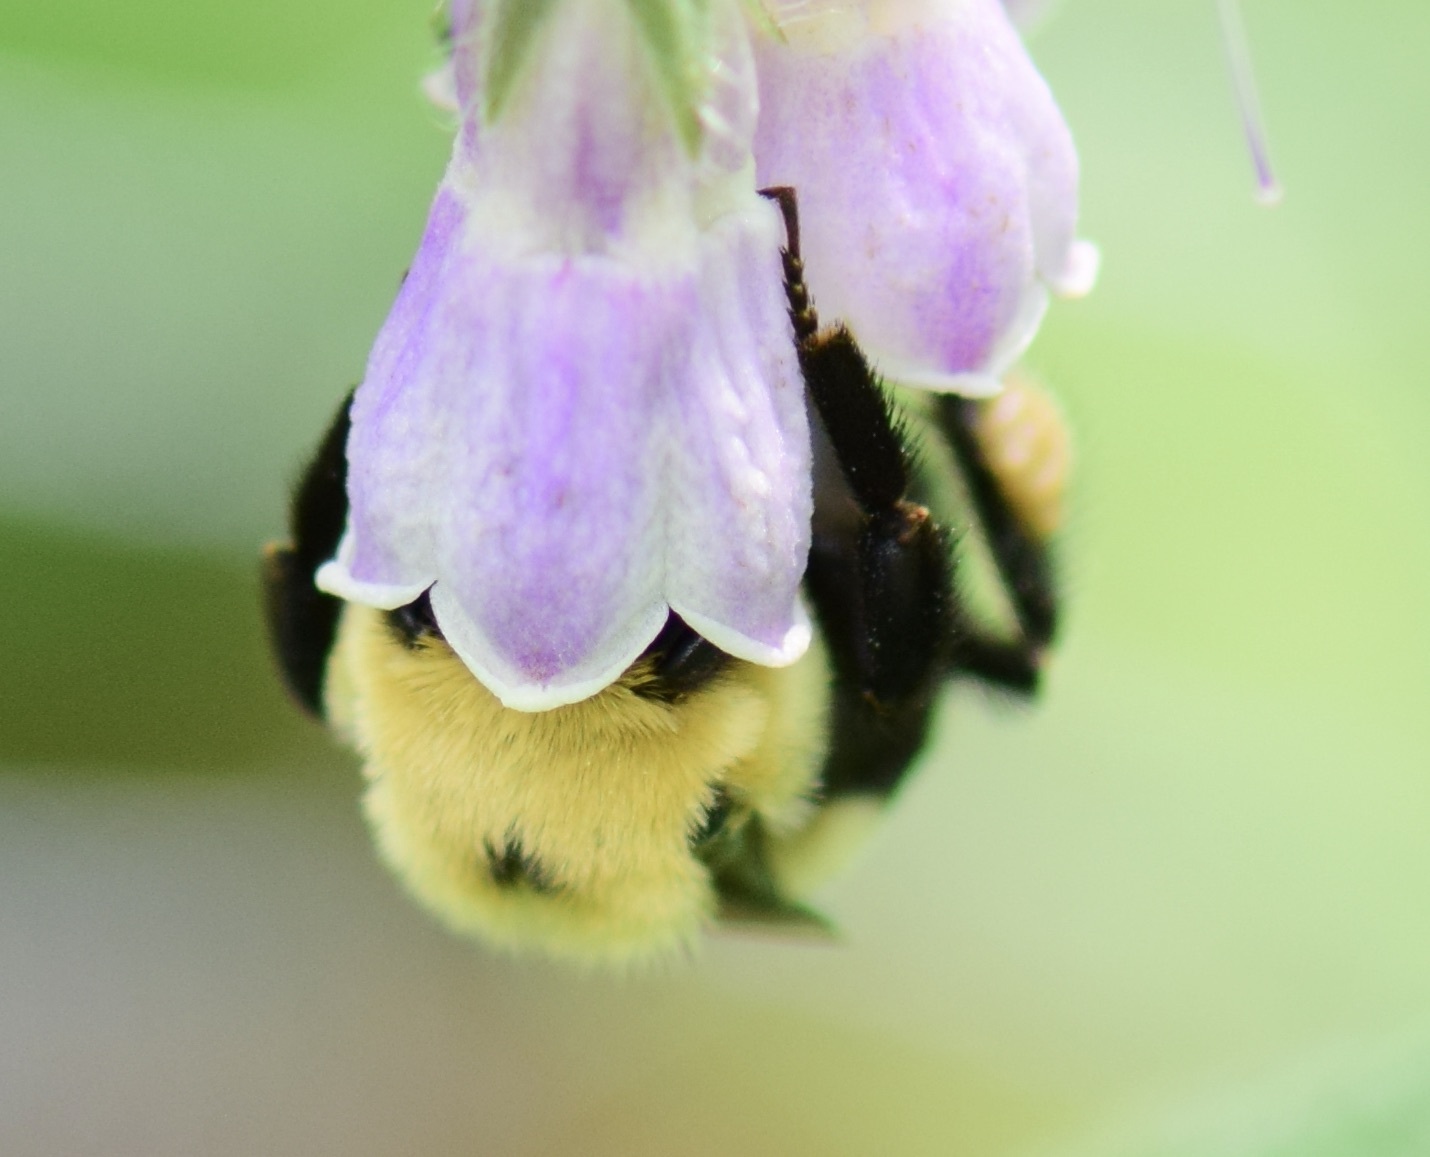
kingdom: Animalia
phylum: Arthropoda
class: Insecta
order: Hymenoptera
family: Apidae
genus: Bombus
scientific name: Bombus griseocollis
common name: Brown-belted bumble bee
